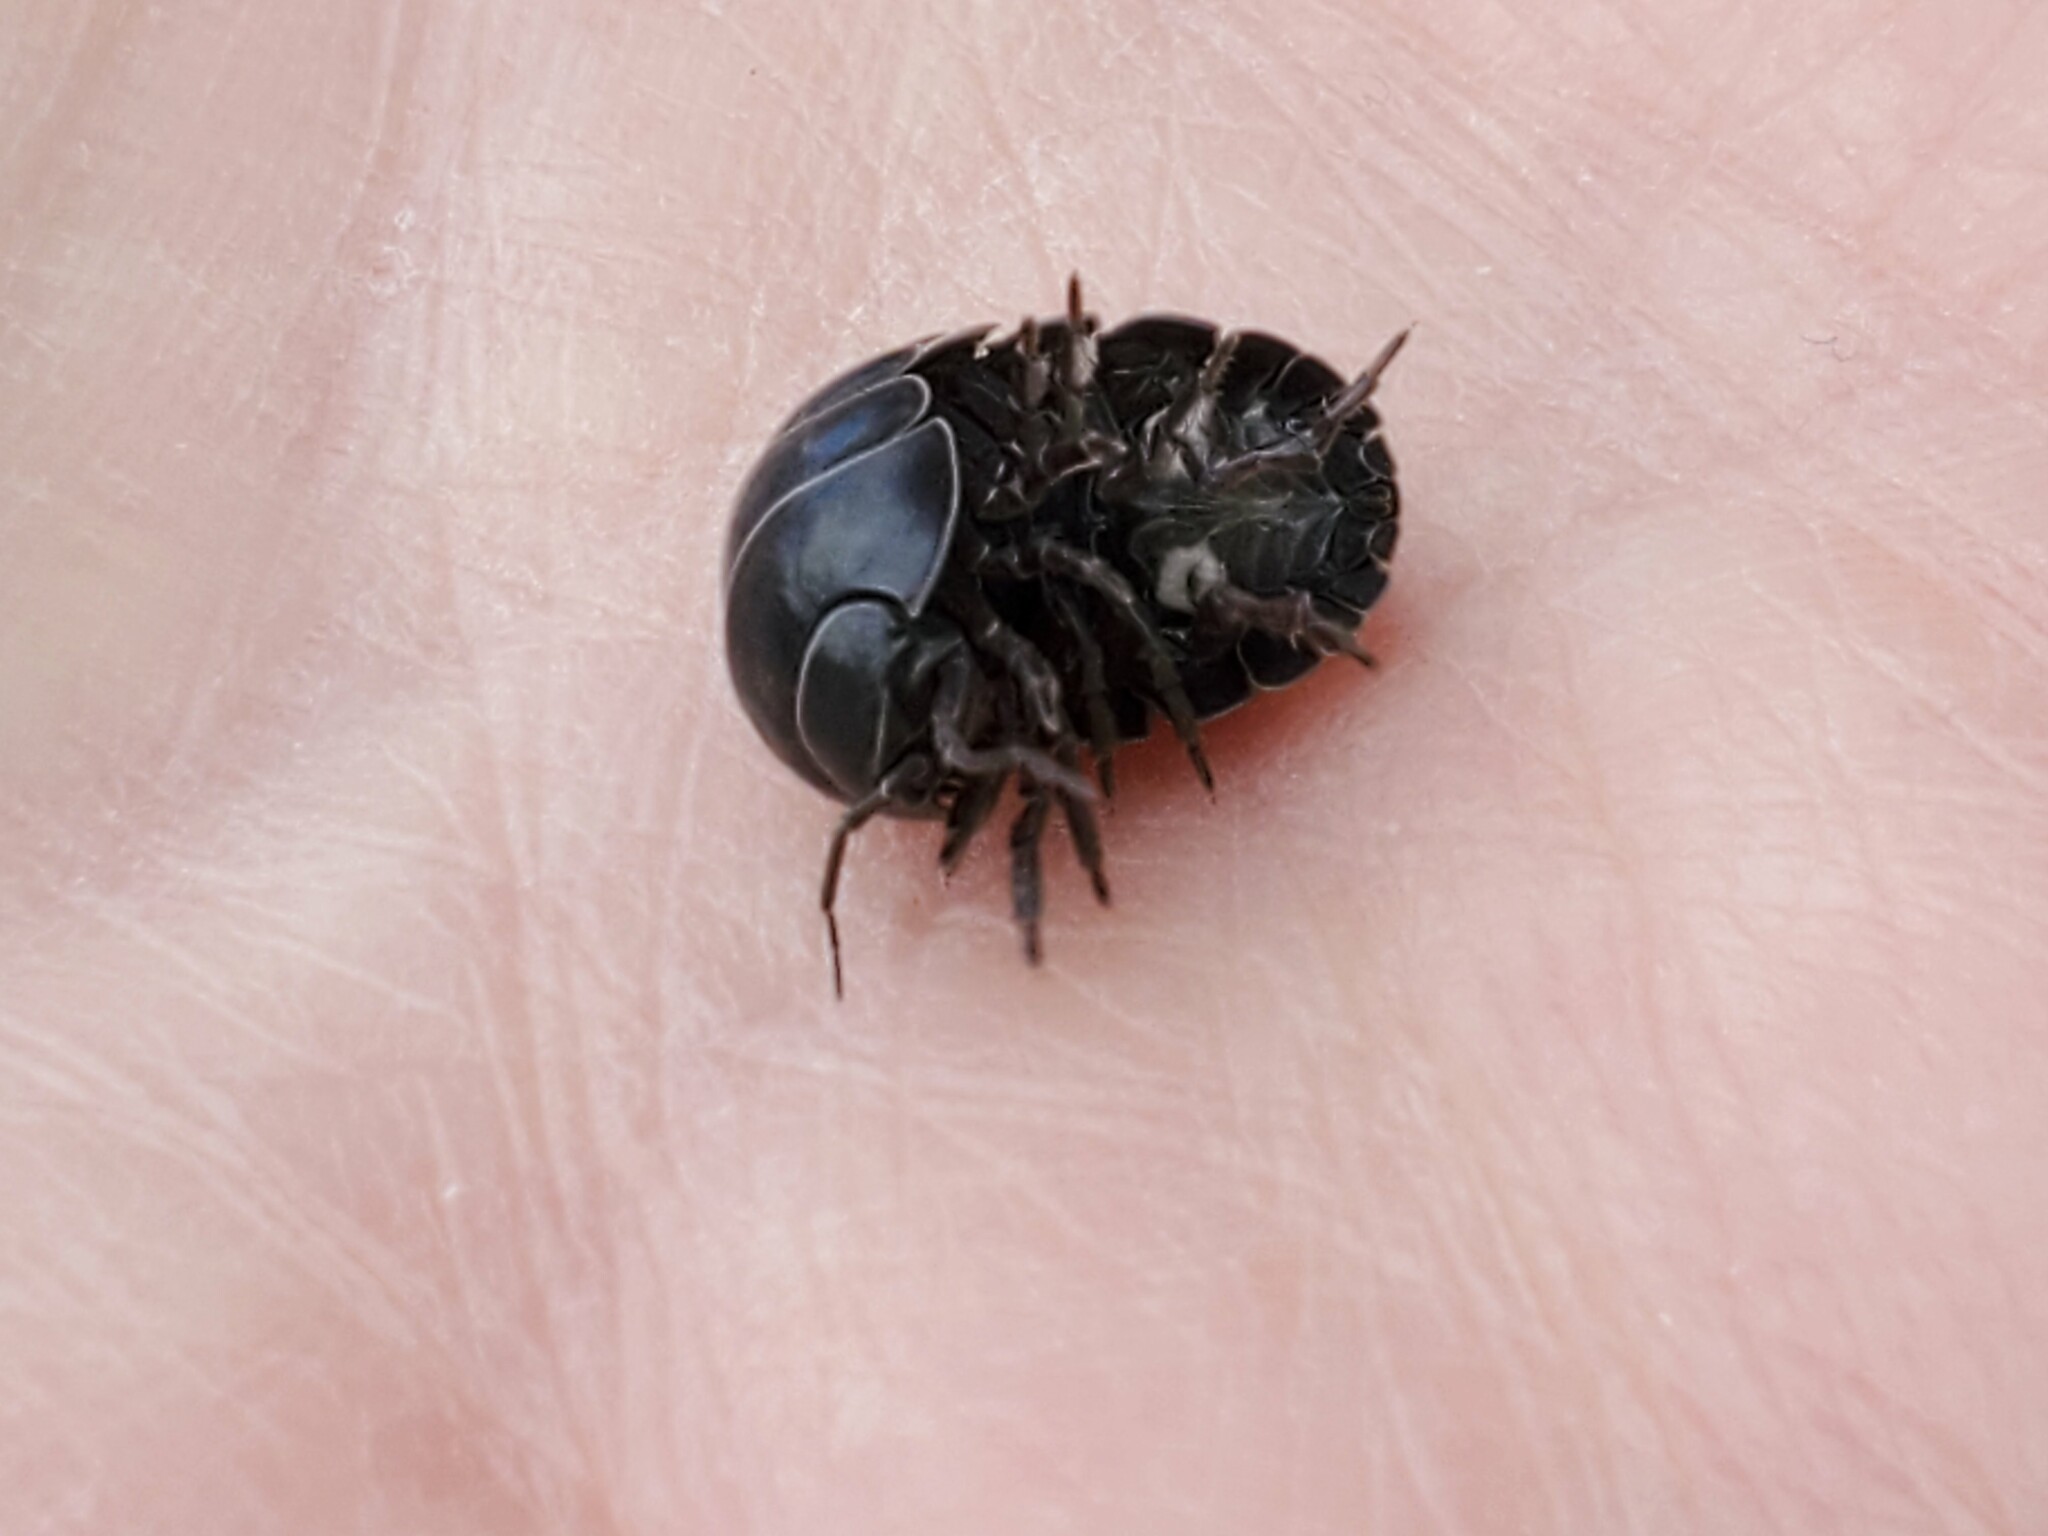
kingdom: Animalia
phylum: Arthropoda
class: Malacostraca
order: Isopoda
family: Armadillidiidae
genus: Armadillidium
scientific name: Armadillidium vulgare
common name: Common pill woodlouse
